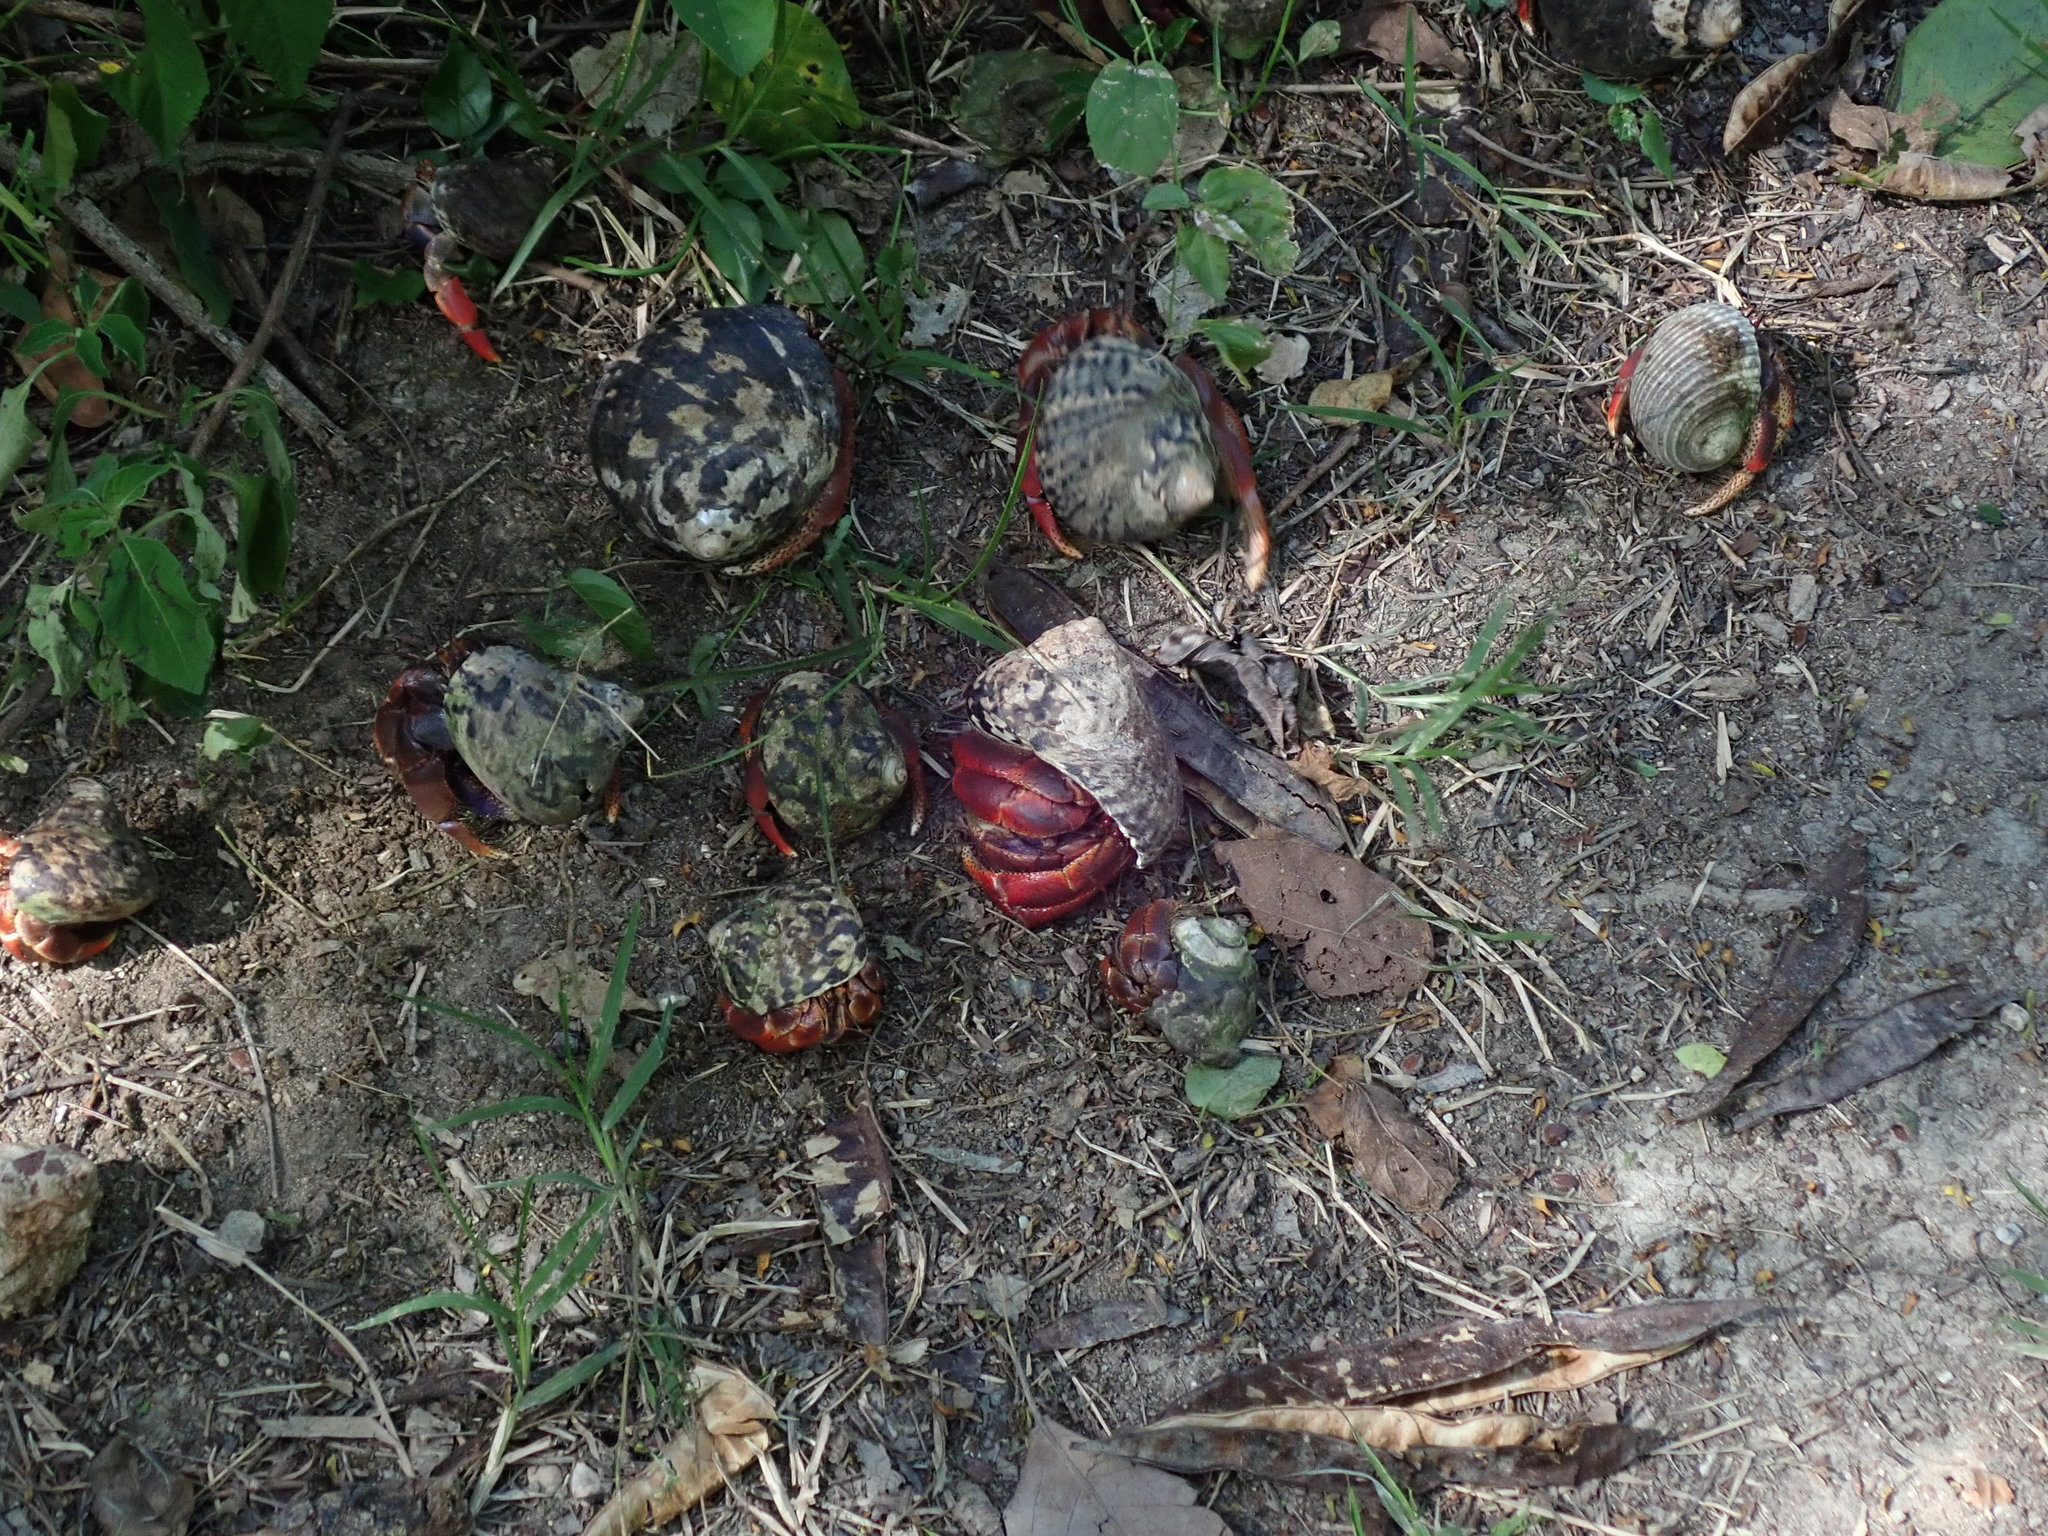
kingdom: Animalia
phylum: Arthropoda
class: Malacostraca
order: Decapoda
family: Coenobitidae
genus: Coenobita
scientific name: Coenobita clypeatus
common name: Caribbean hermit crab
